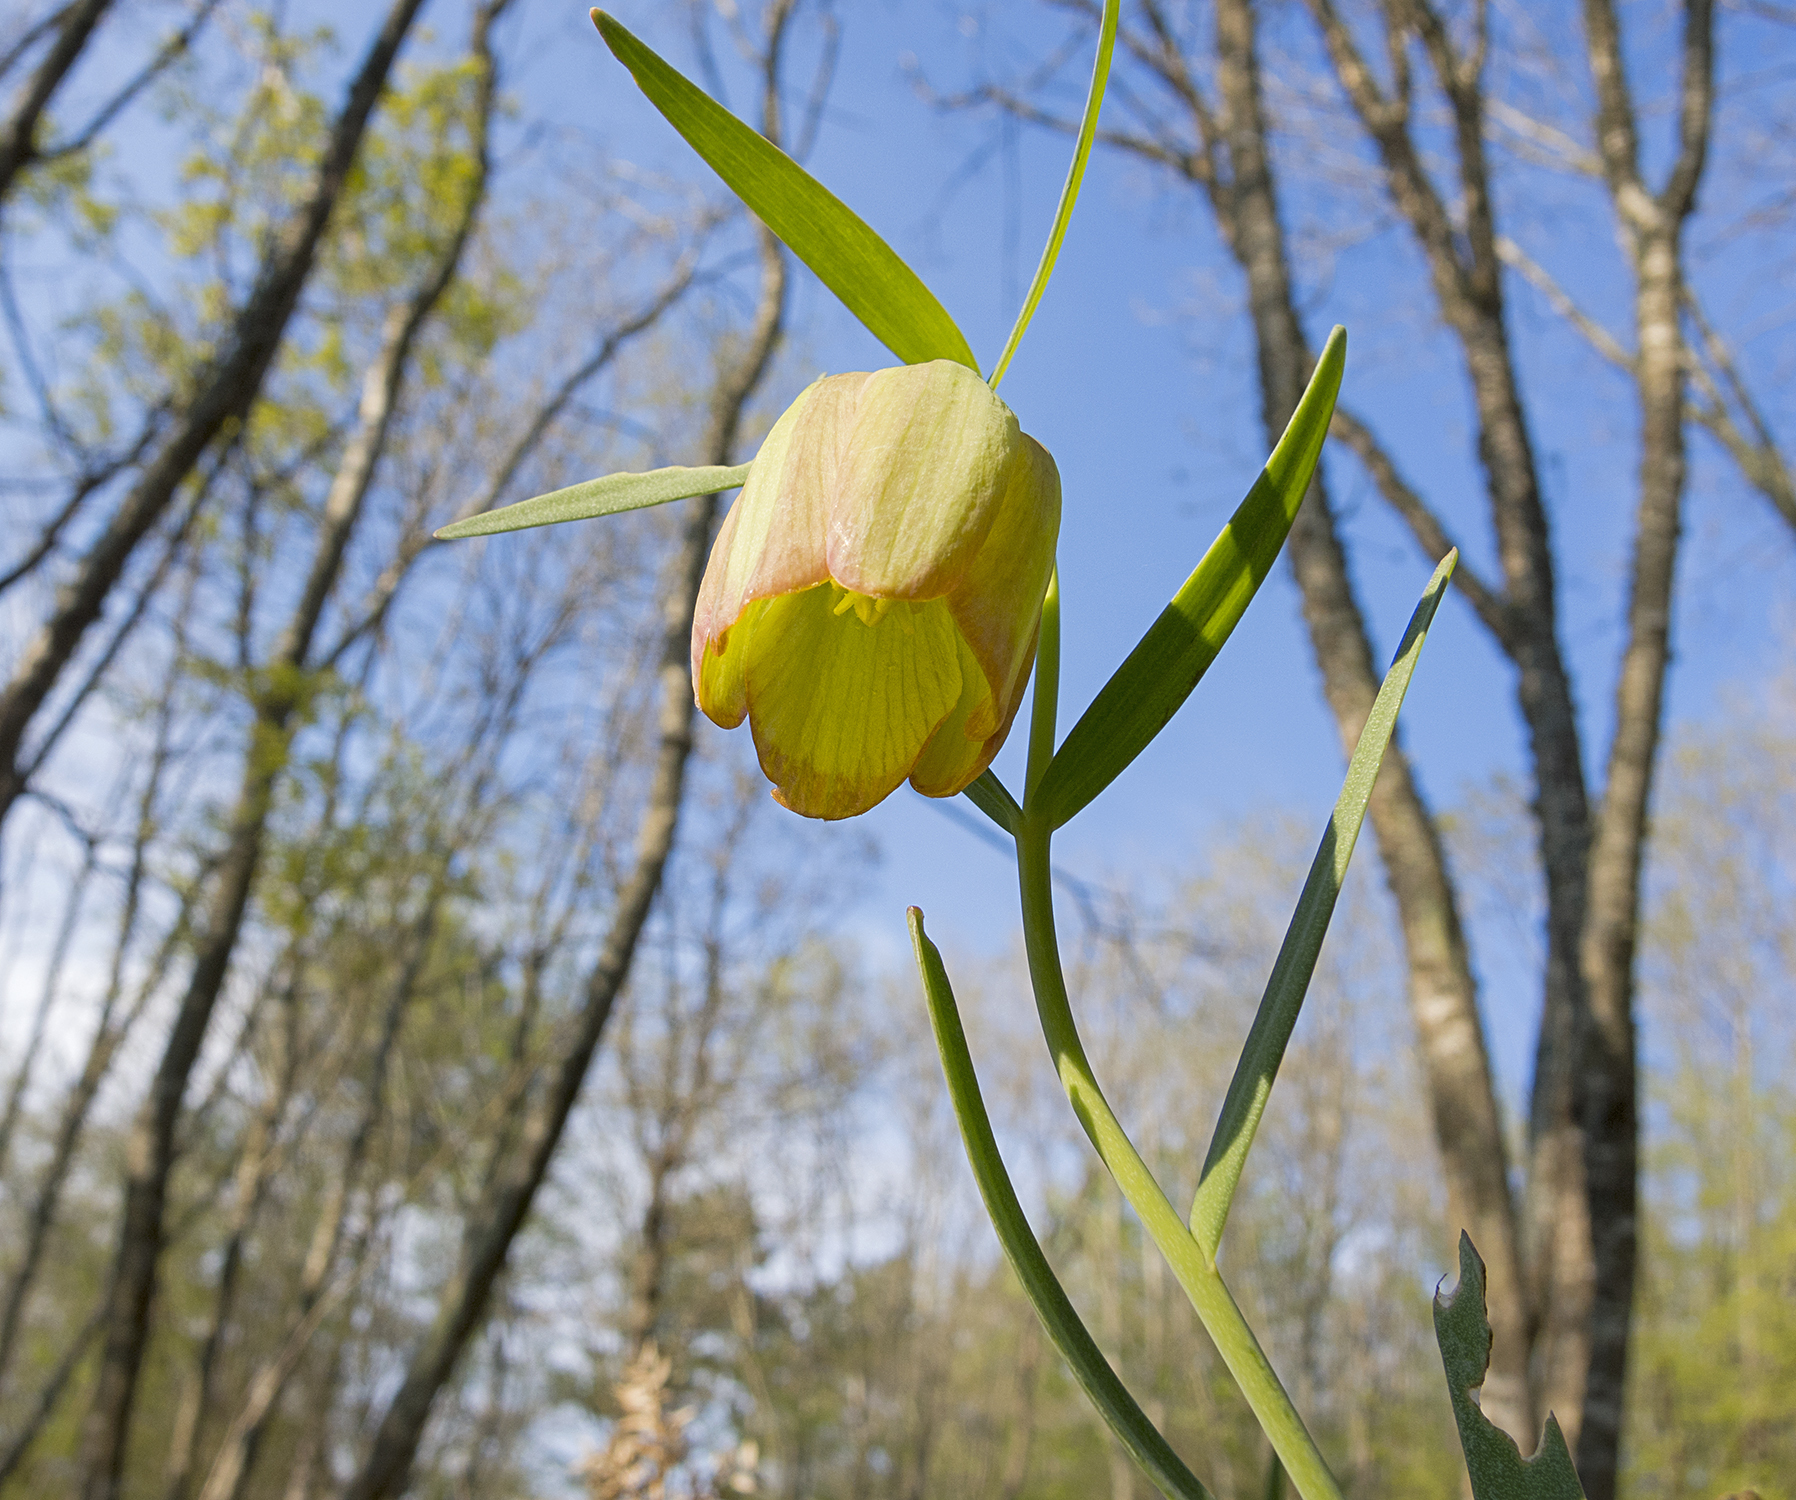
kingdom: Plantae
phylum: Tracheophyta
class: Liliopsida
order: Liliales
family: Liliaceae
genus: Fritillaria
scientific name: Fritillaria pontica
